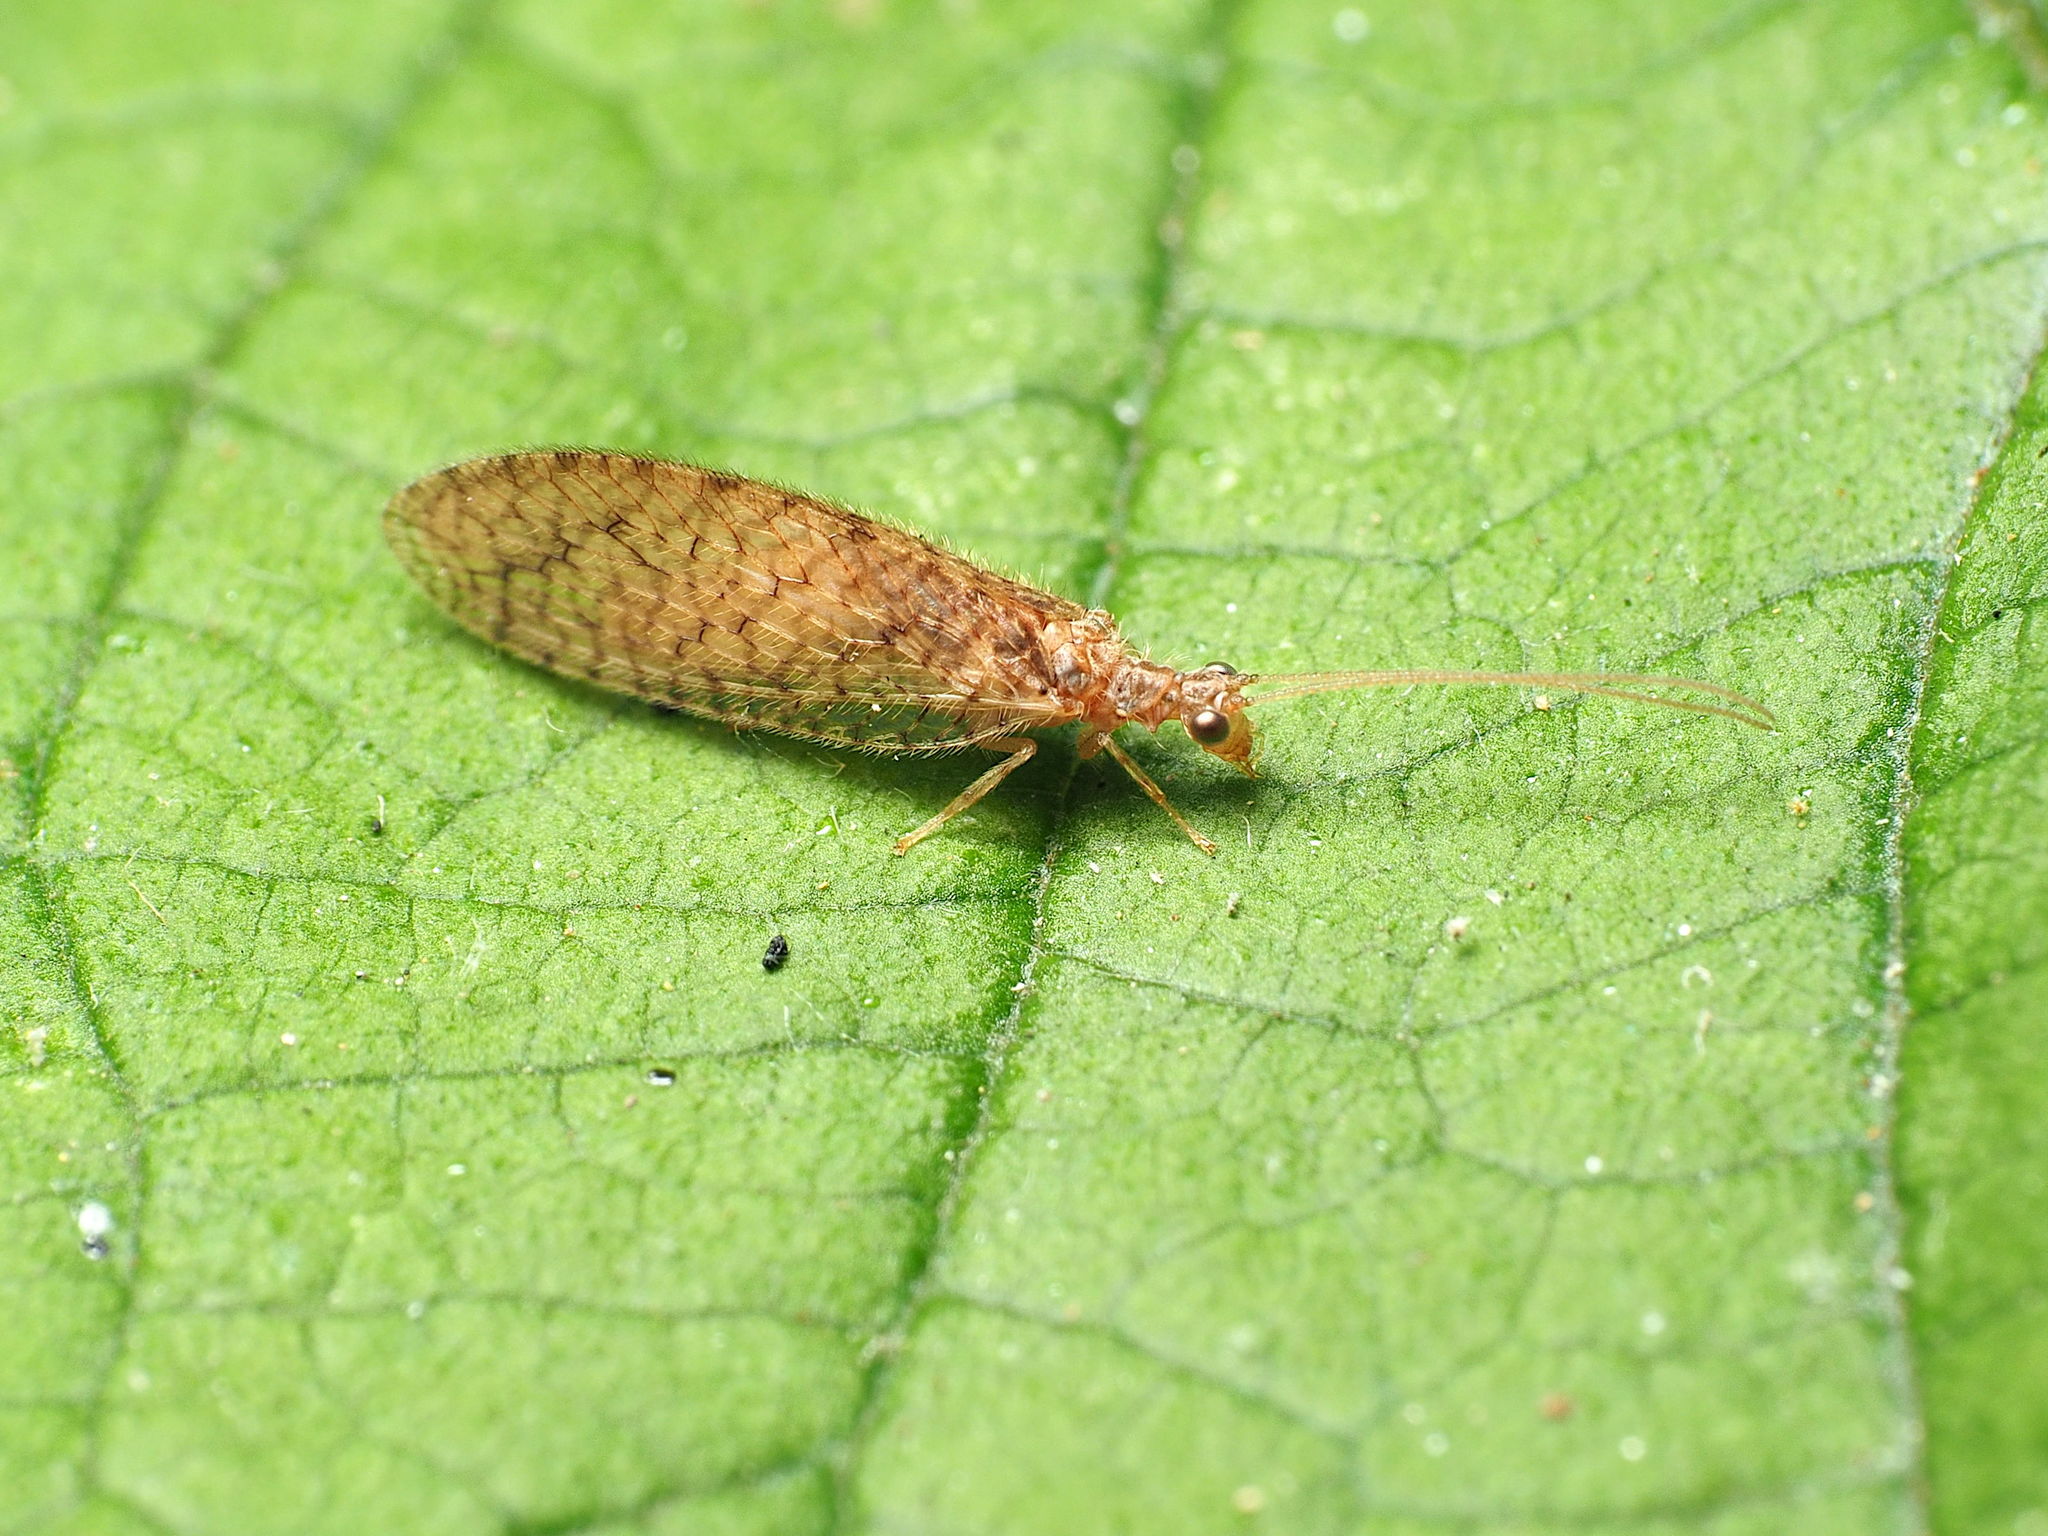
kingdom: Animalia
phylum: Arthropoda
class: Insecta
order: Neuroptera
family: Hemerobiidae
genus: Micromus
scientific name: Micromus posticus
